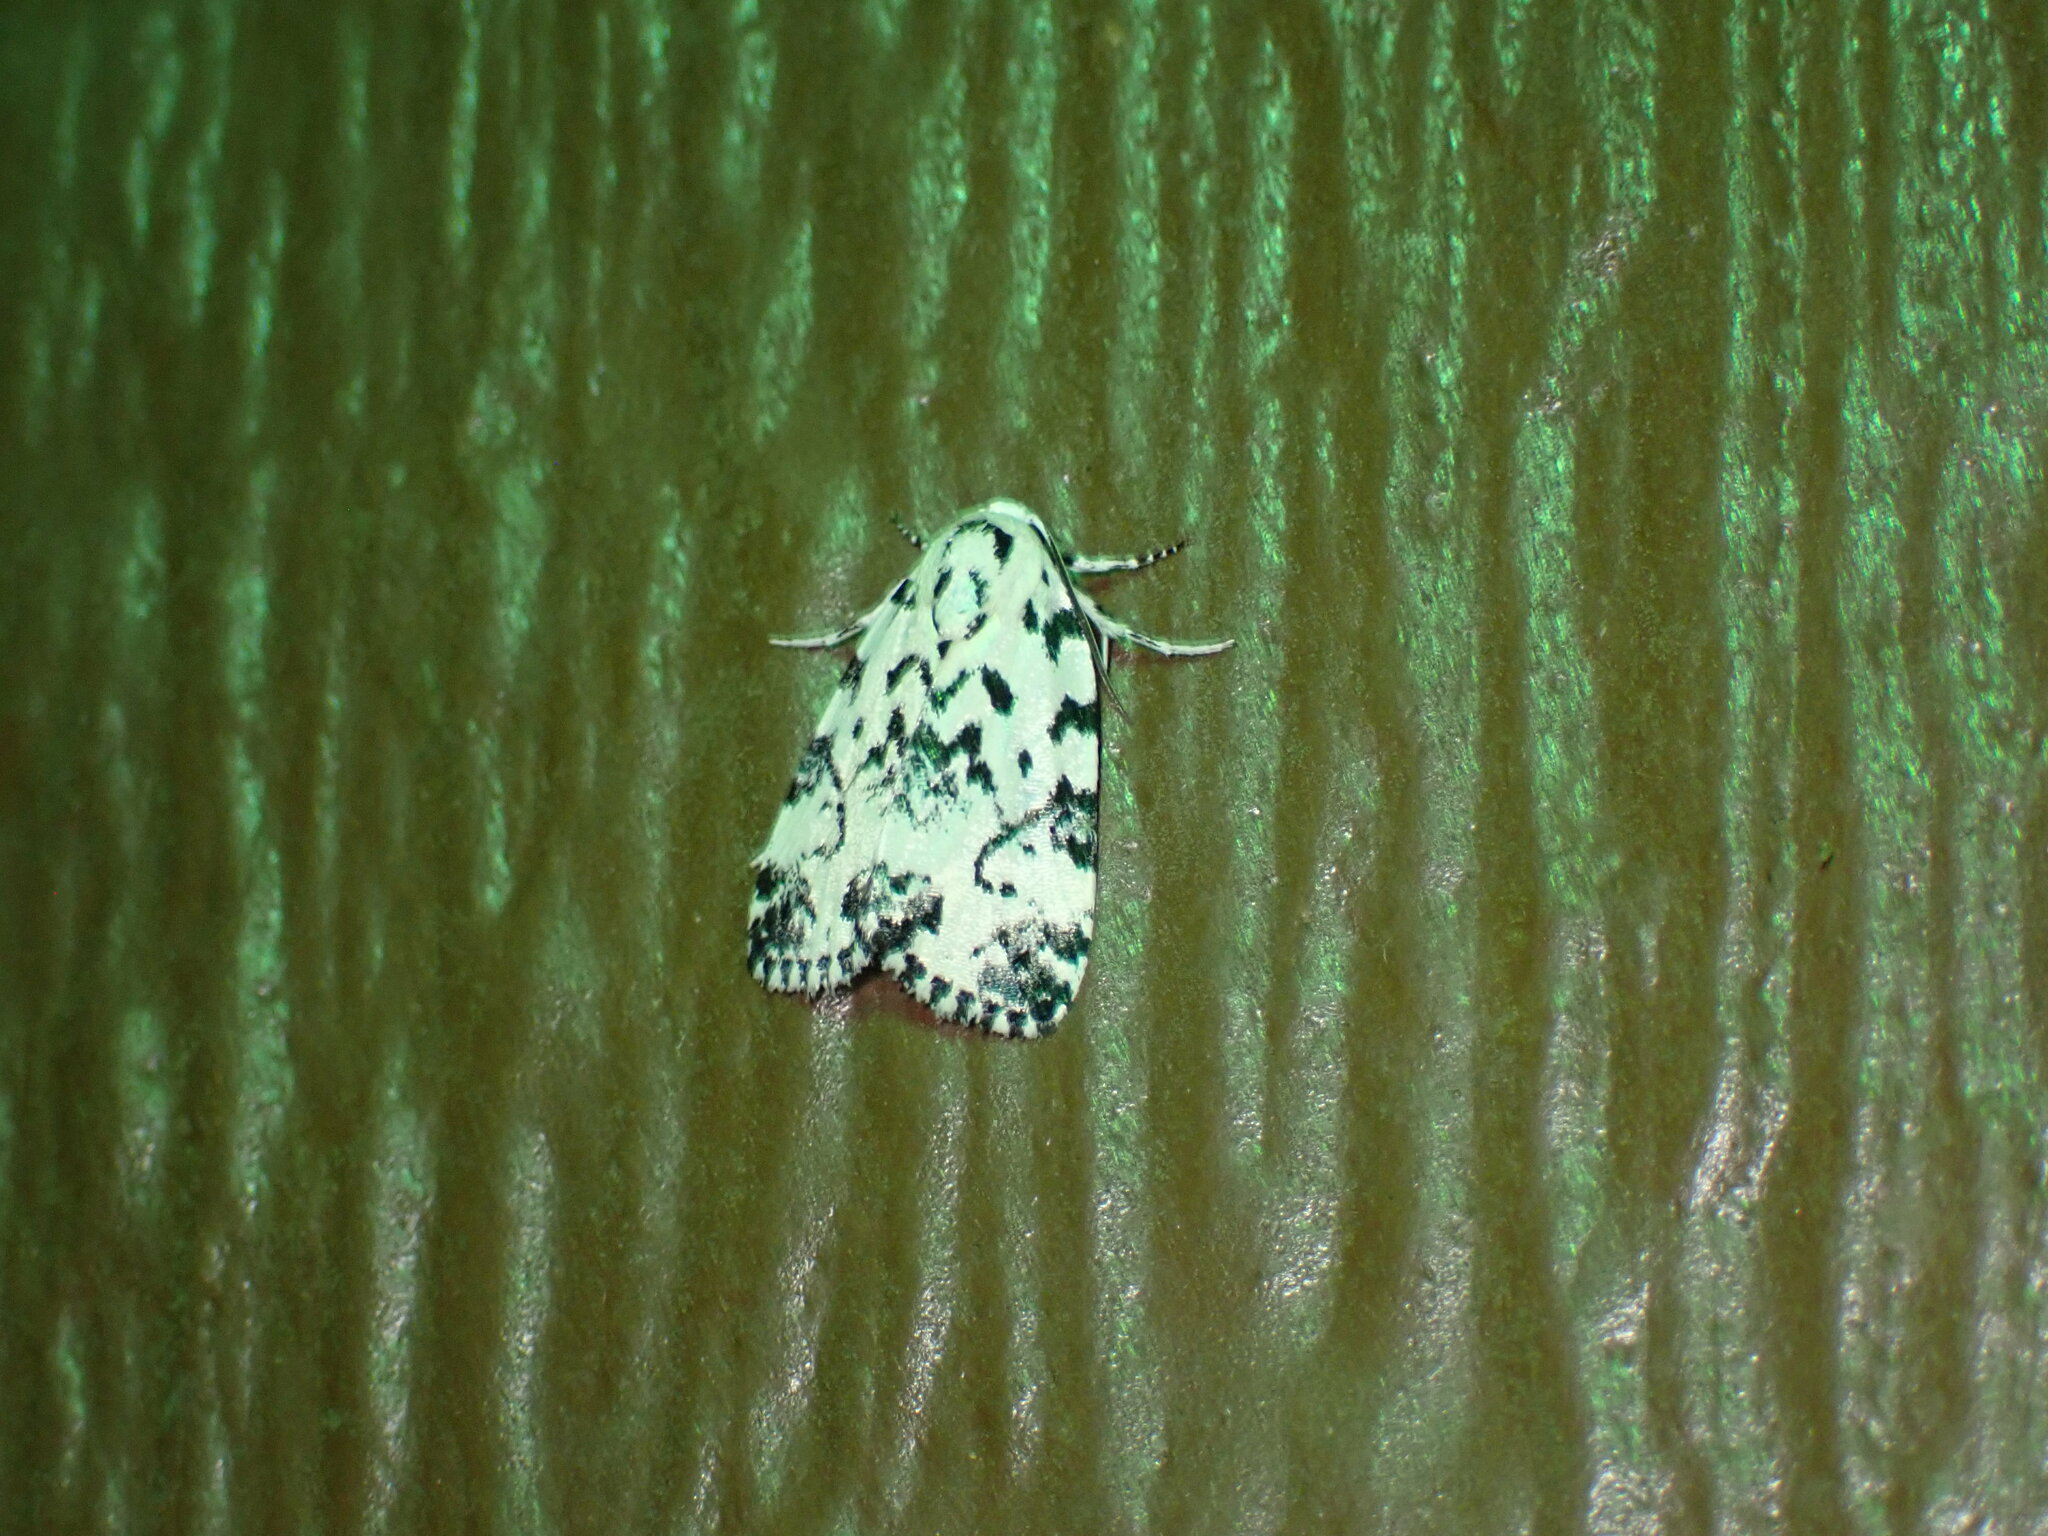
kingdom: Animalia
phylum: Arthropoda
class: Insecta
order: Lepidoptera
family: Noctuidae
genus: Polygrammate
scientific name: Polygrammate hebraeicum
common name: Hebrew moth
